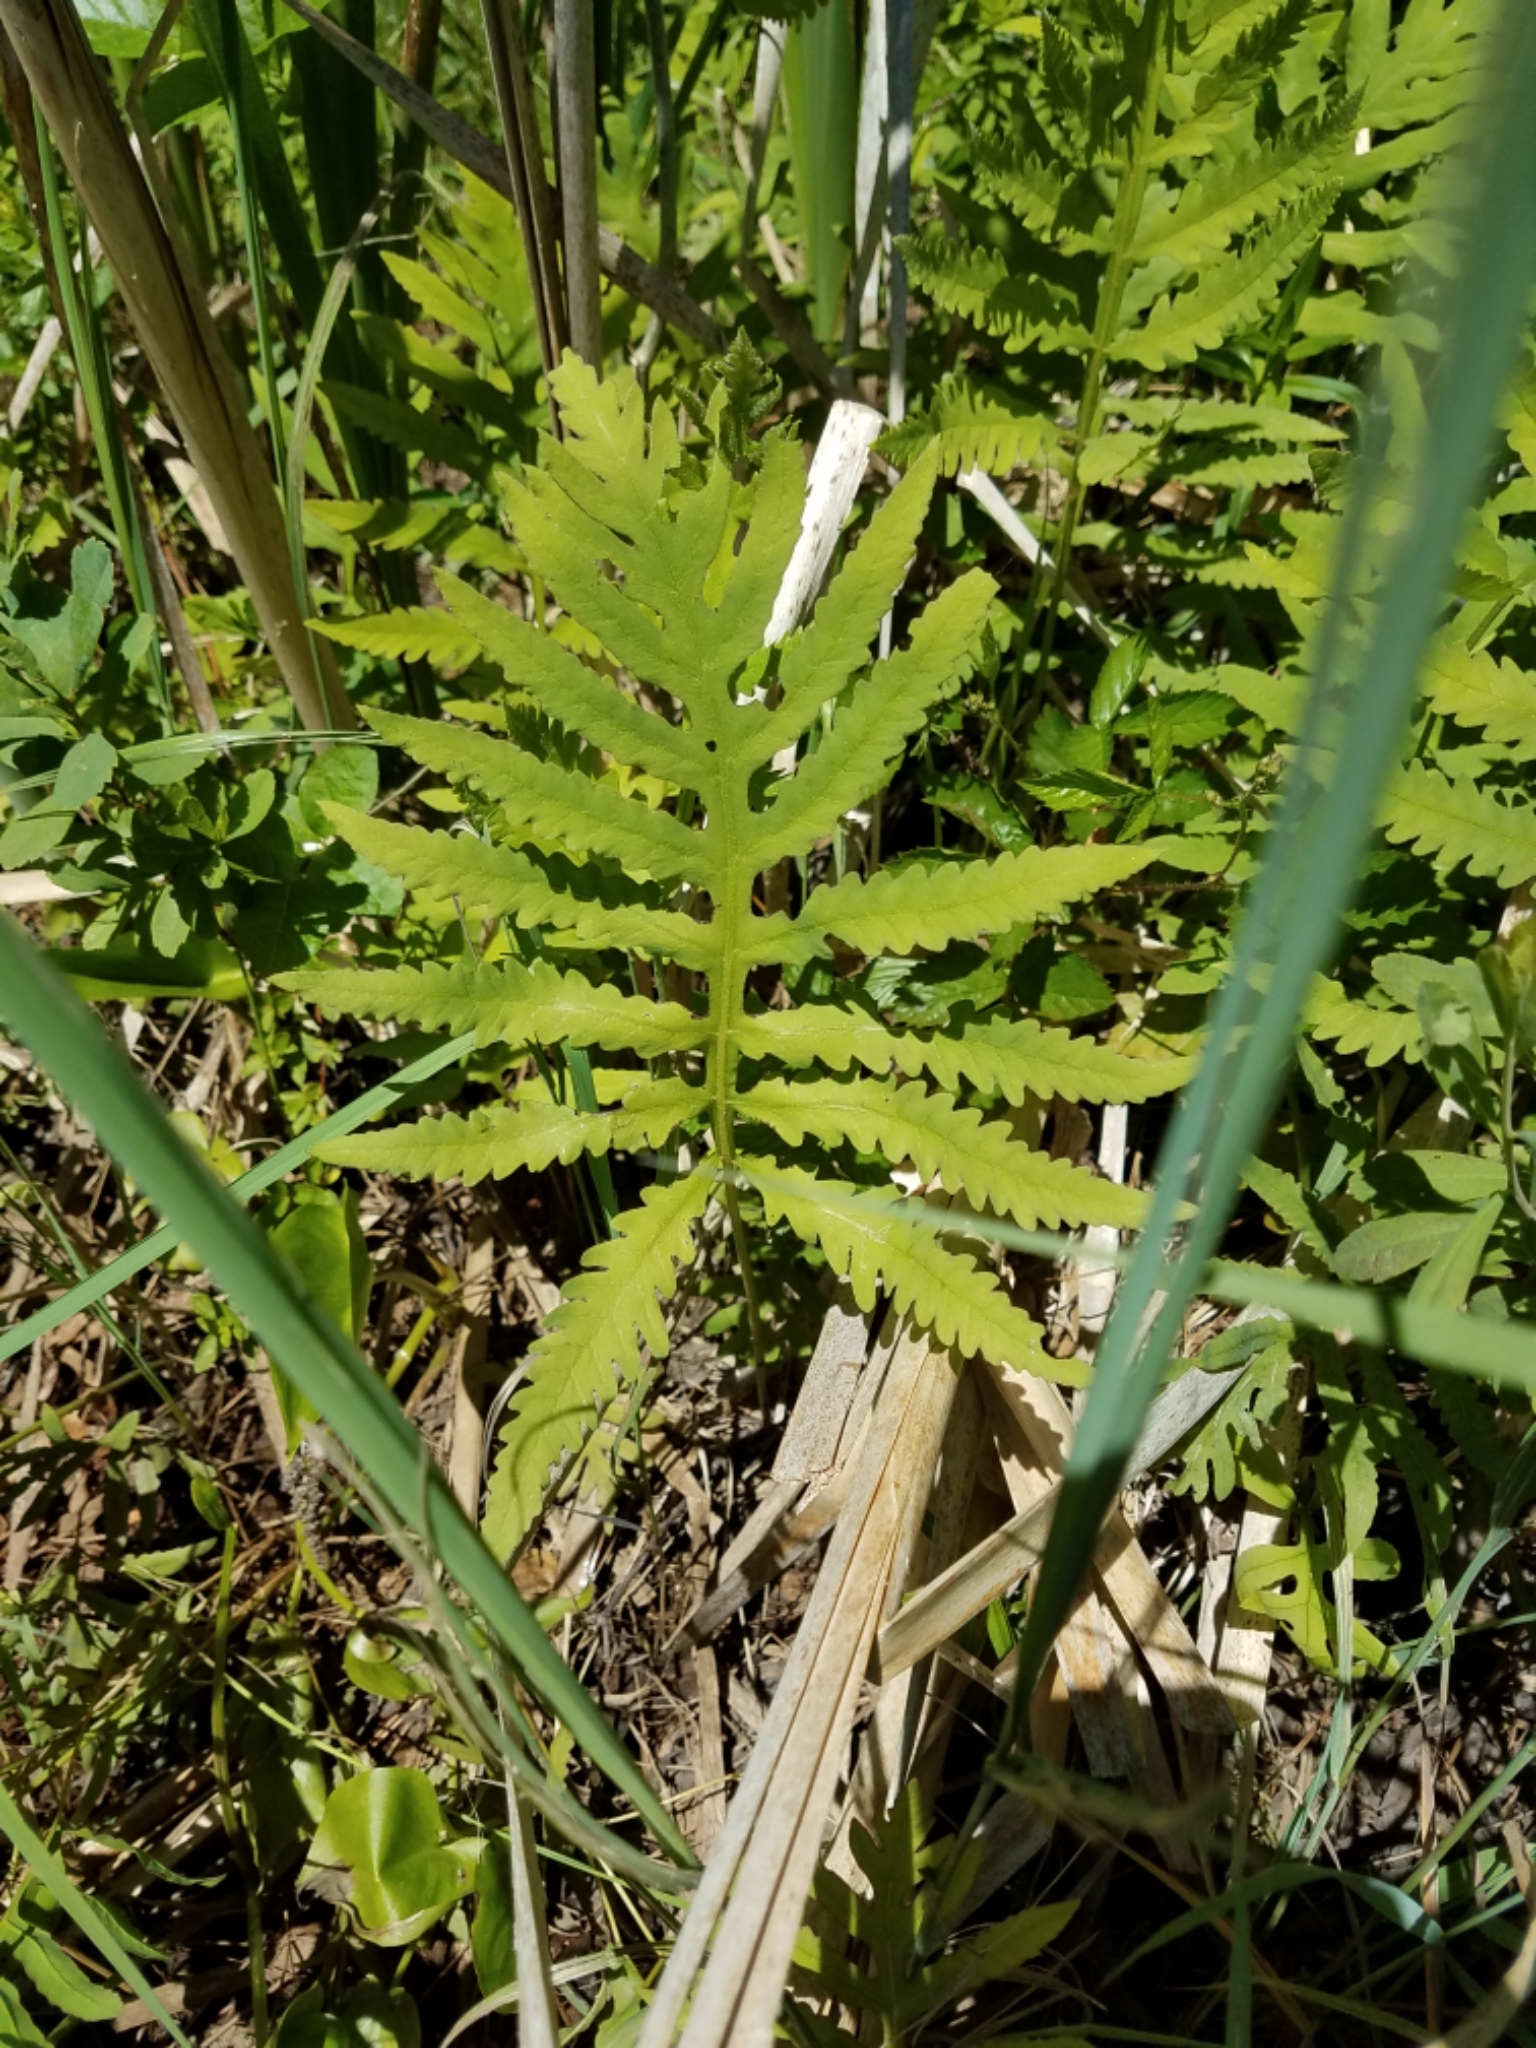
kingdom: Plantae
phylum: Tracheophyta
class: Polypodiopsida
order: Polypodiales
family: Onocleaceae
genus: Onoclea
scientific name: Onoclea sensibilis
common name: Sensitive fern
